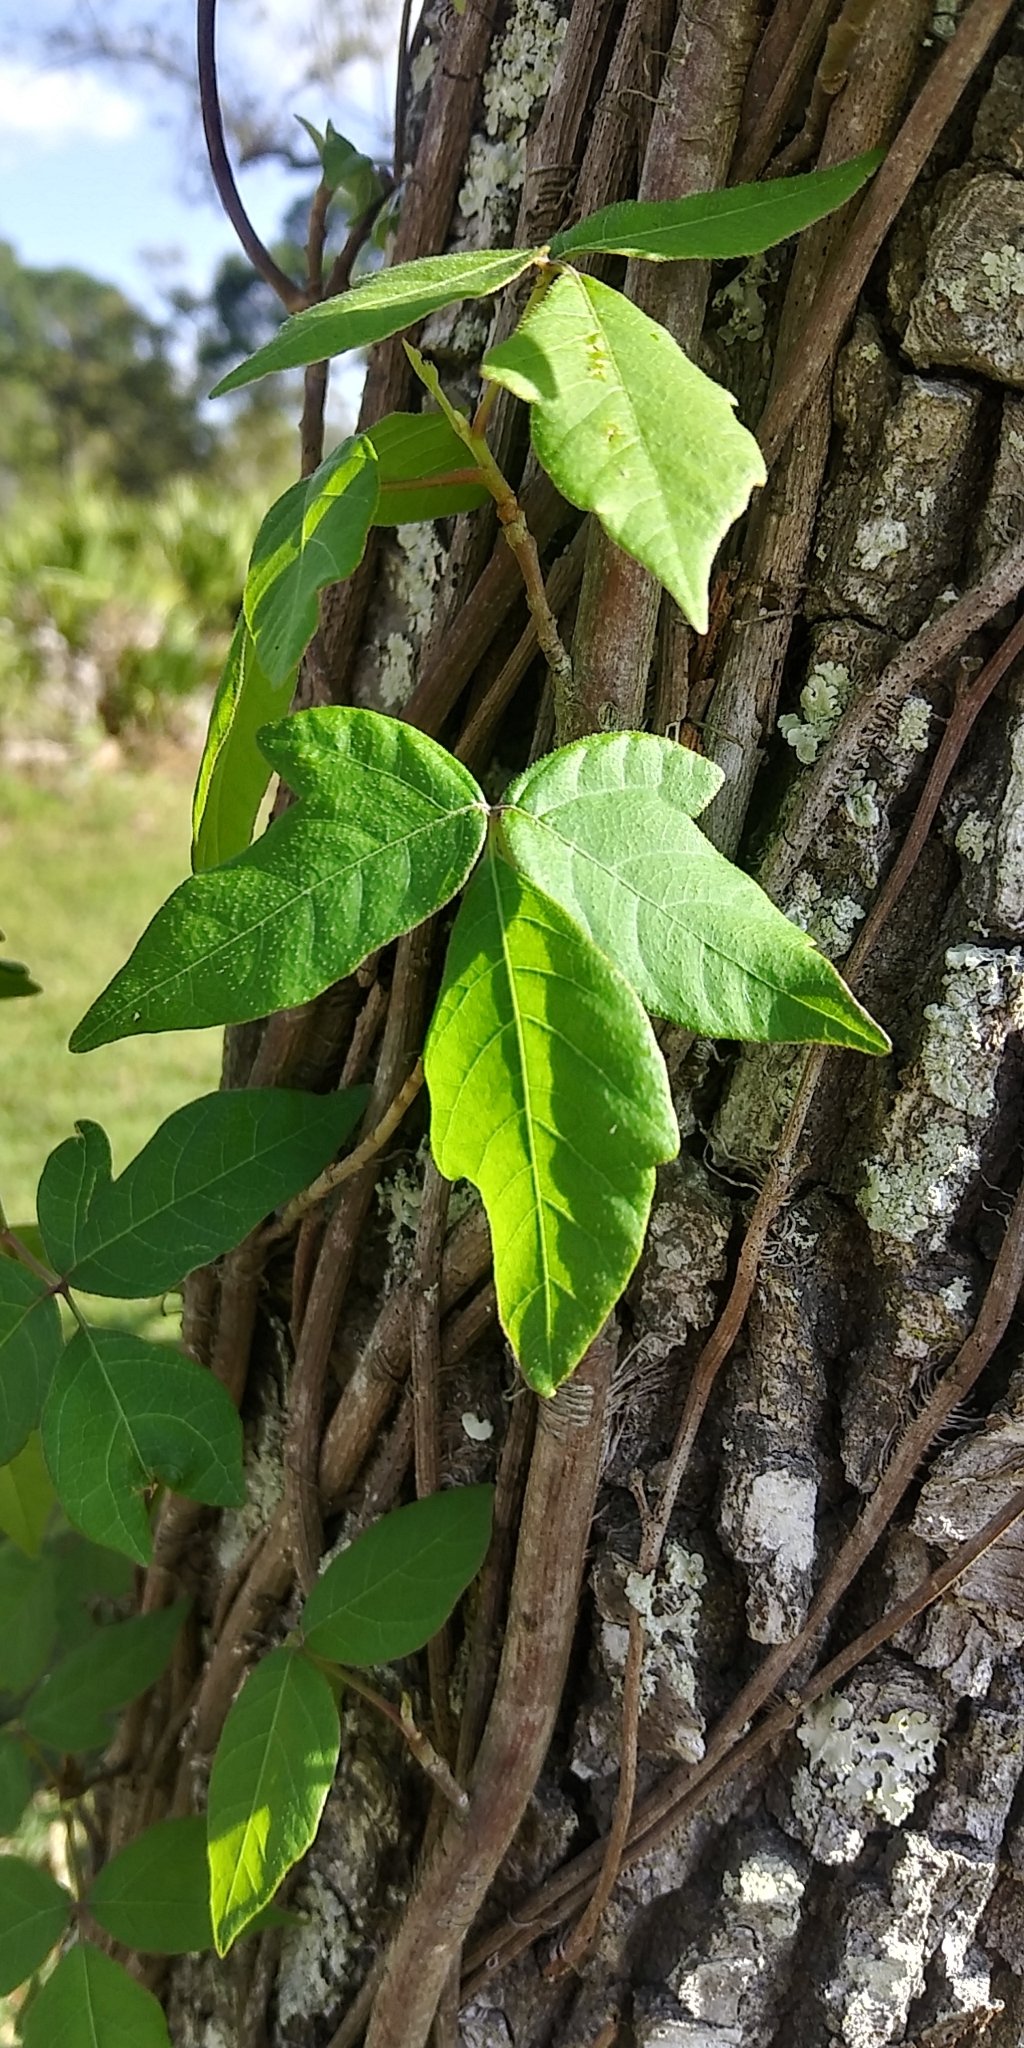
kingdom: Plantae
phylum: Tracheophyta
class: Magnoliopsida
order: Sapindales
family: Anacardiaceae
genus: Toxicodendron
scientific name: Toxicodendron radicans
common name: Poison ivy
